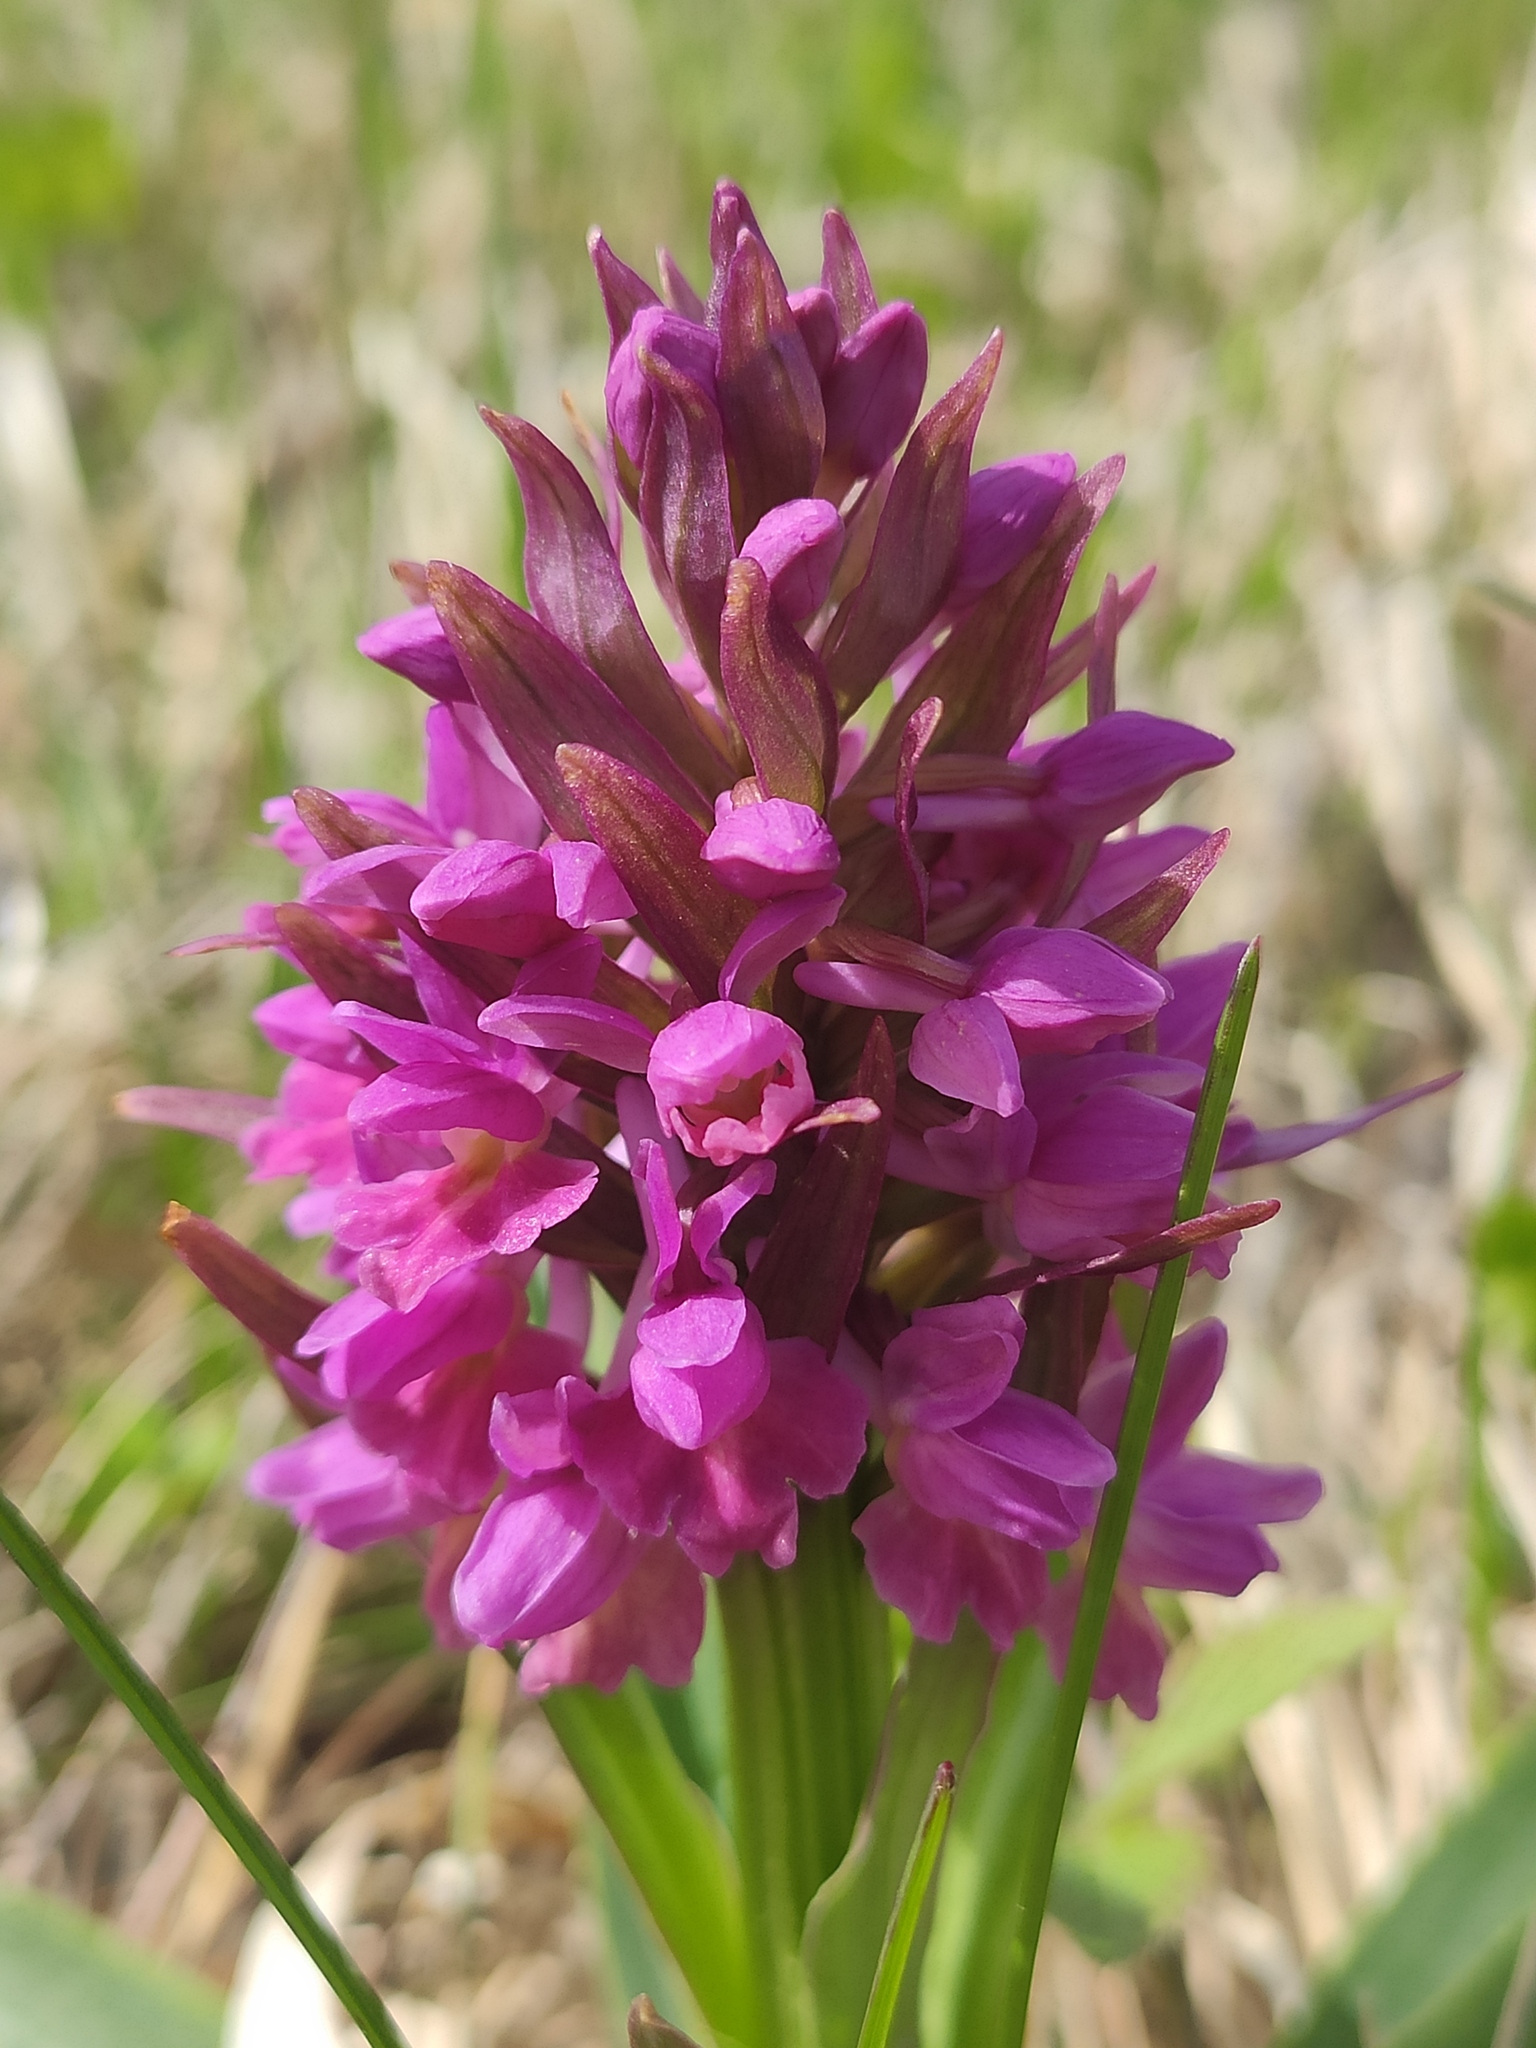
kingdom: Plantae
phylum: Tracheophyta
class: Liliopsida
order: Asparagales
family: Orchidaceae
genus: Dactylorhiza
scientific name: Dactylorhiza romana
